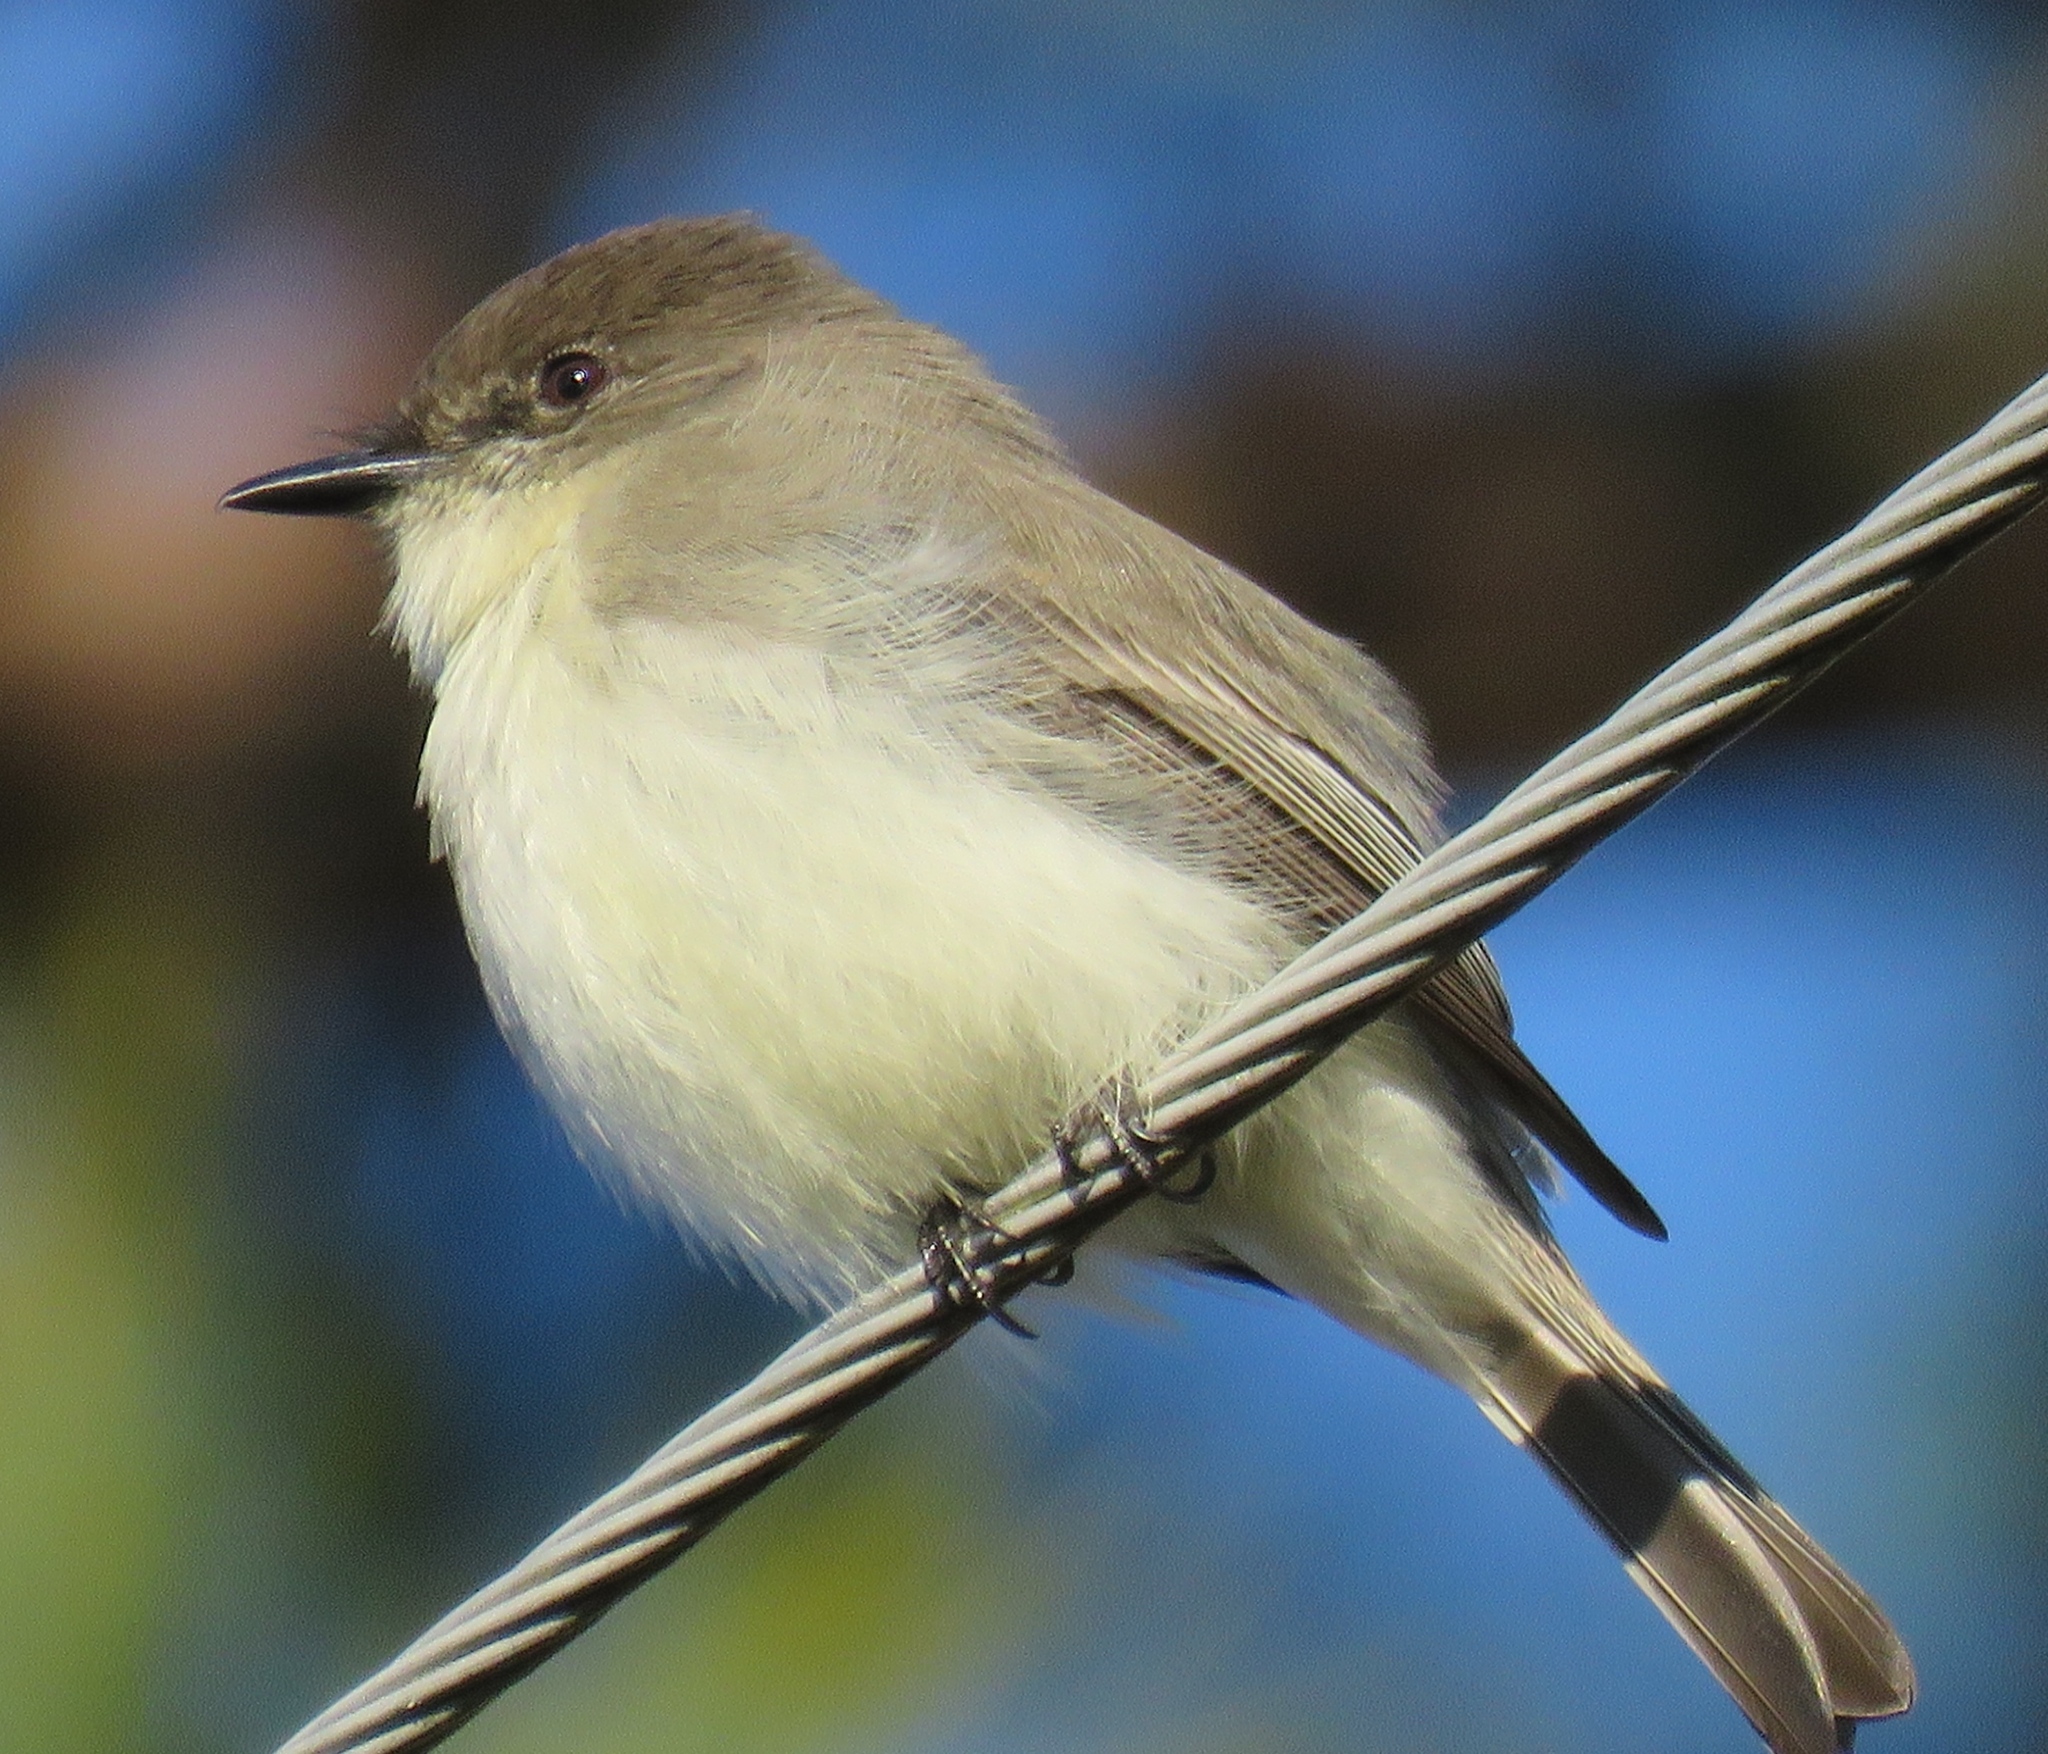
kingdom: Animalia
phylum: Chordata
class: Aves
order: Passeriformes
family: Tyrannidae
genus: Sayornis
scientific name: Sayornis phoebe
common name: Eastern phoebe
